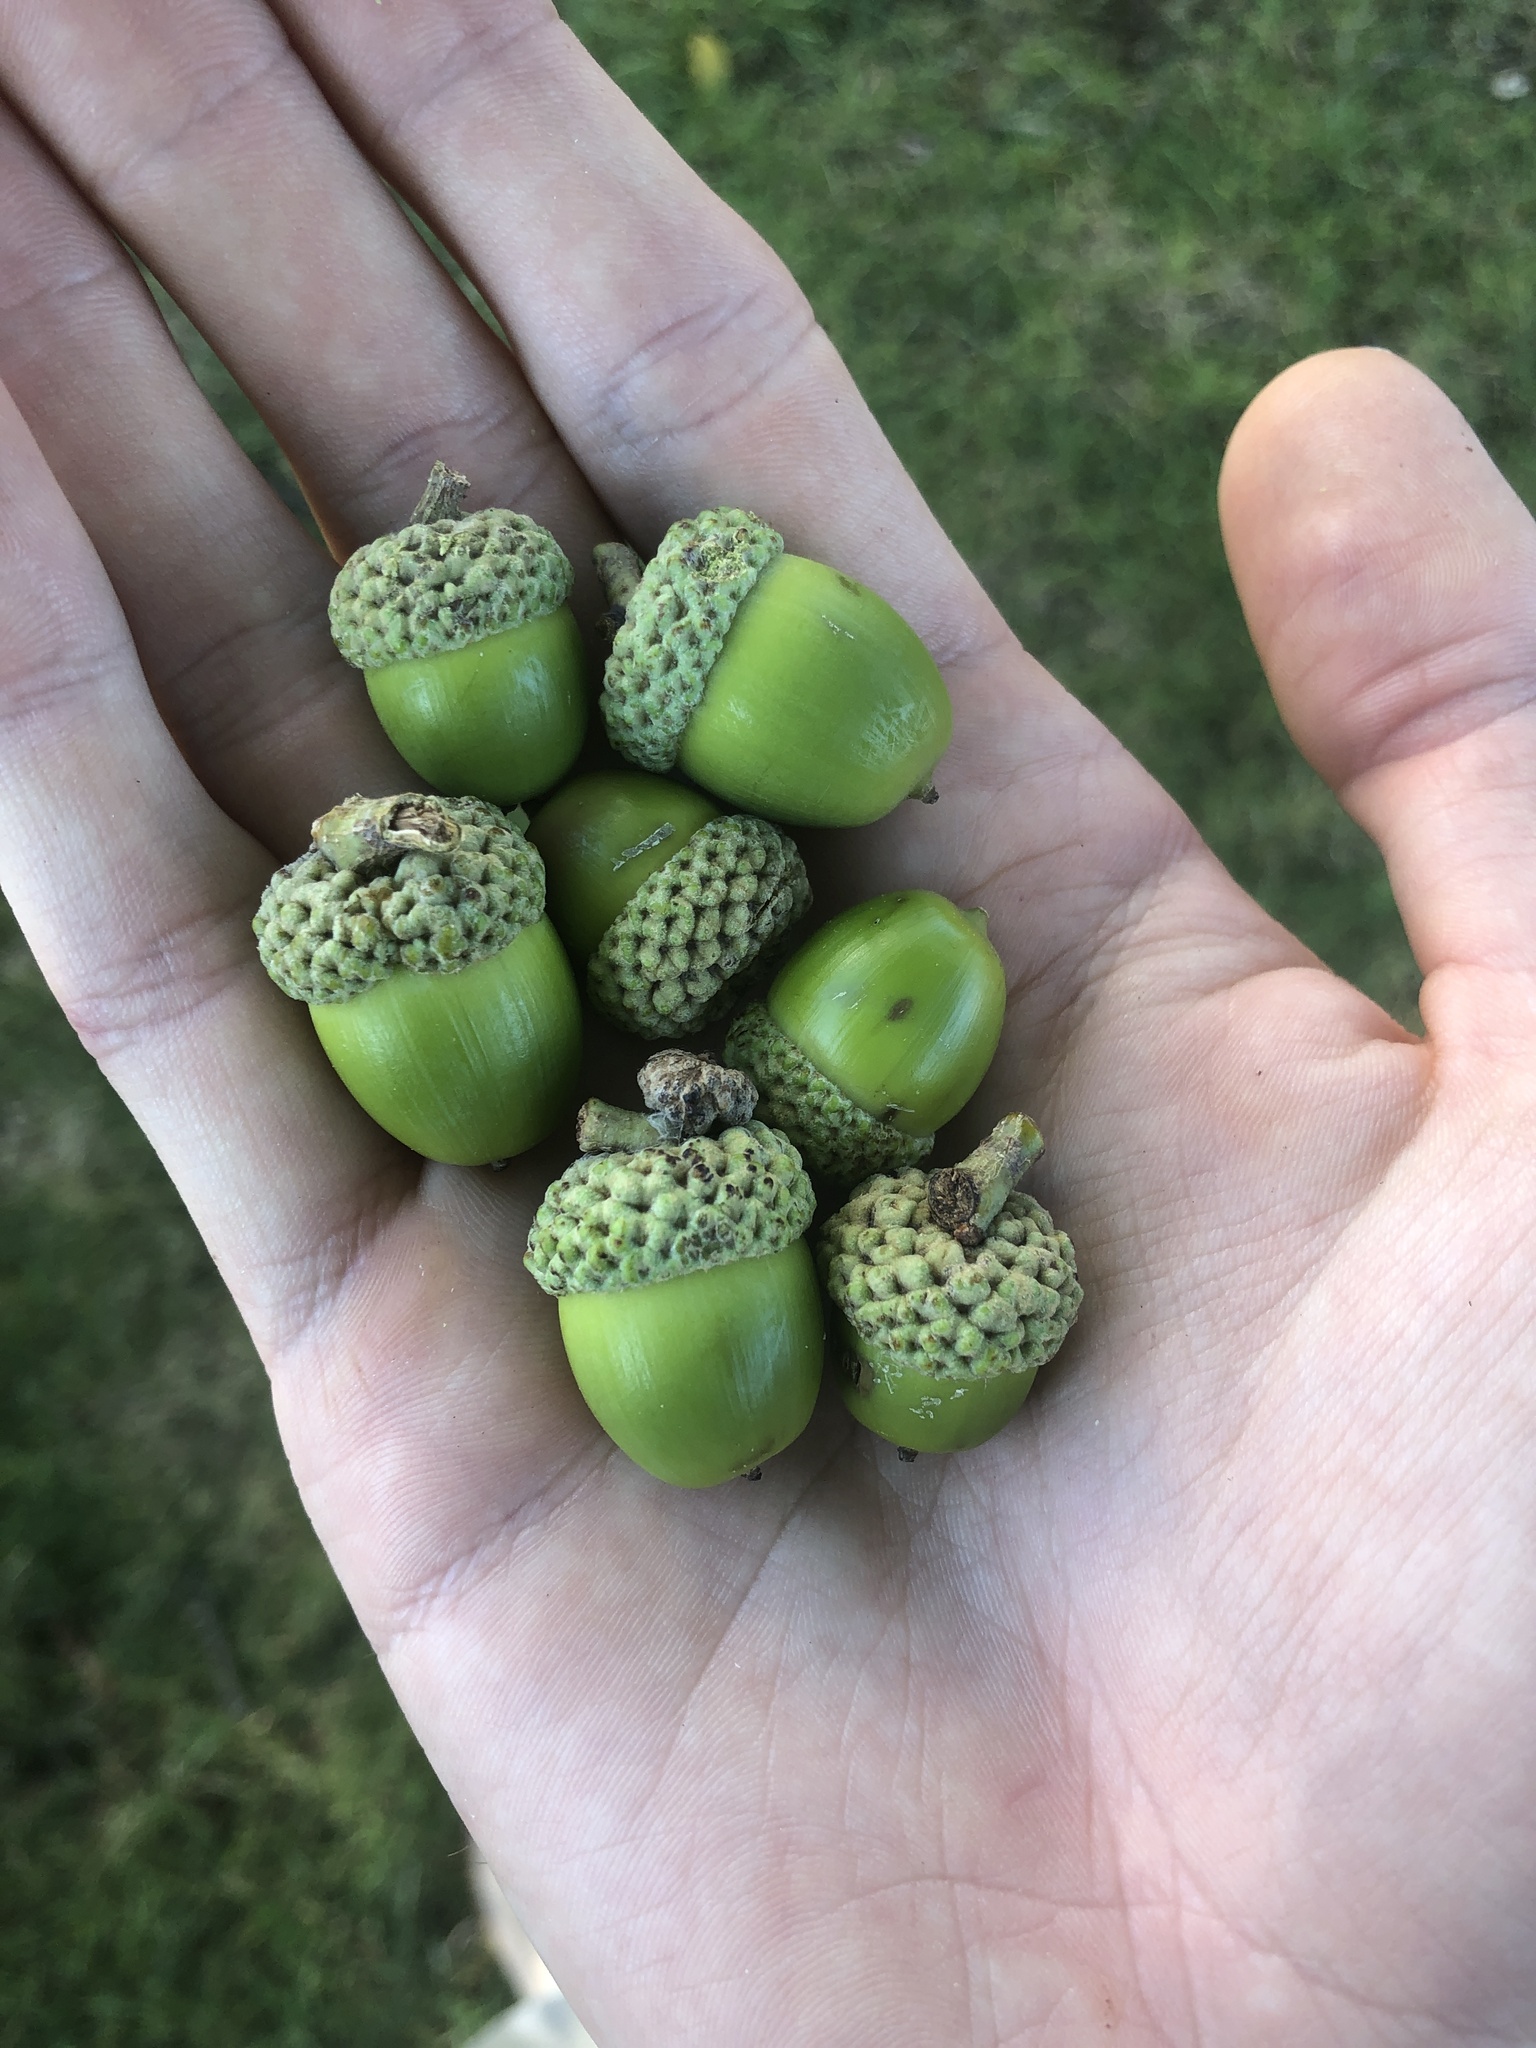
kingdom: Plantae
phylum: Tracheophyta
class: Magnoliopsida
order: Fagales
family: Fagaceae
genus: Quercus
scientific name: Quercus alba
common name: White oak
